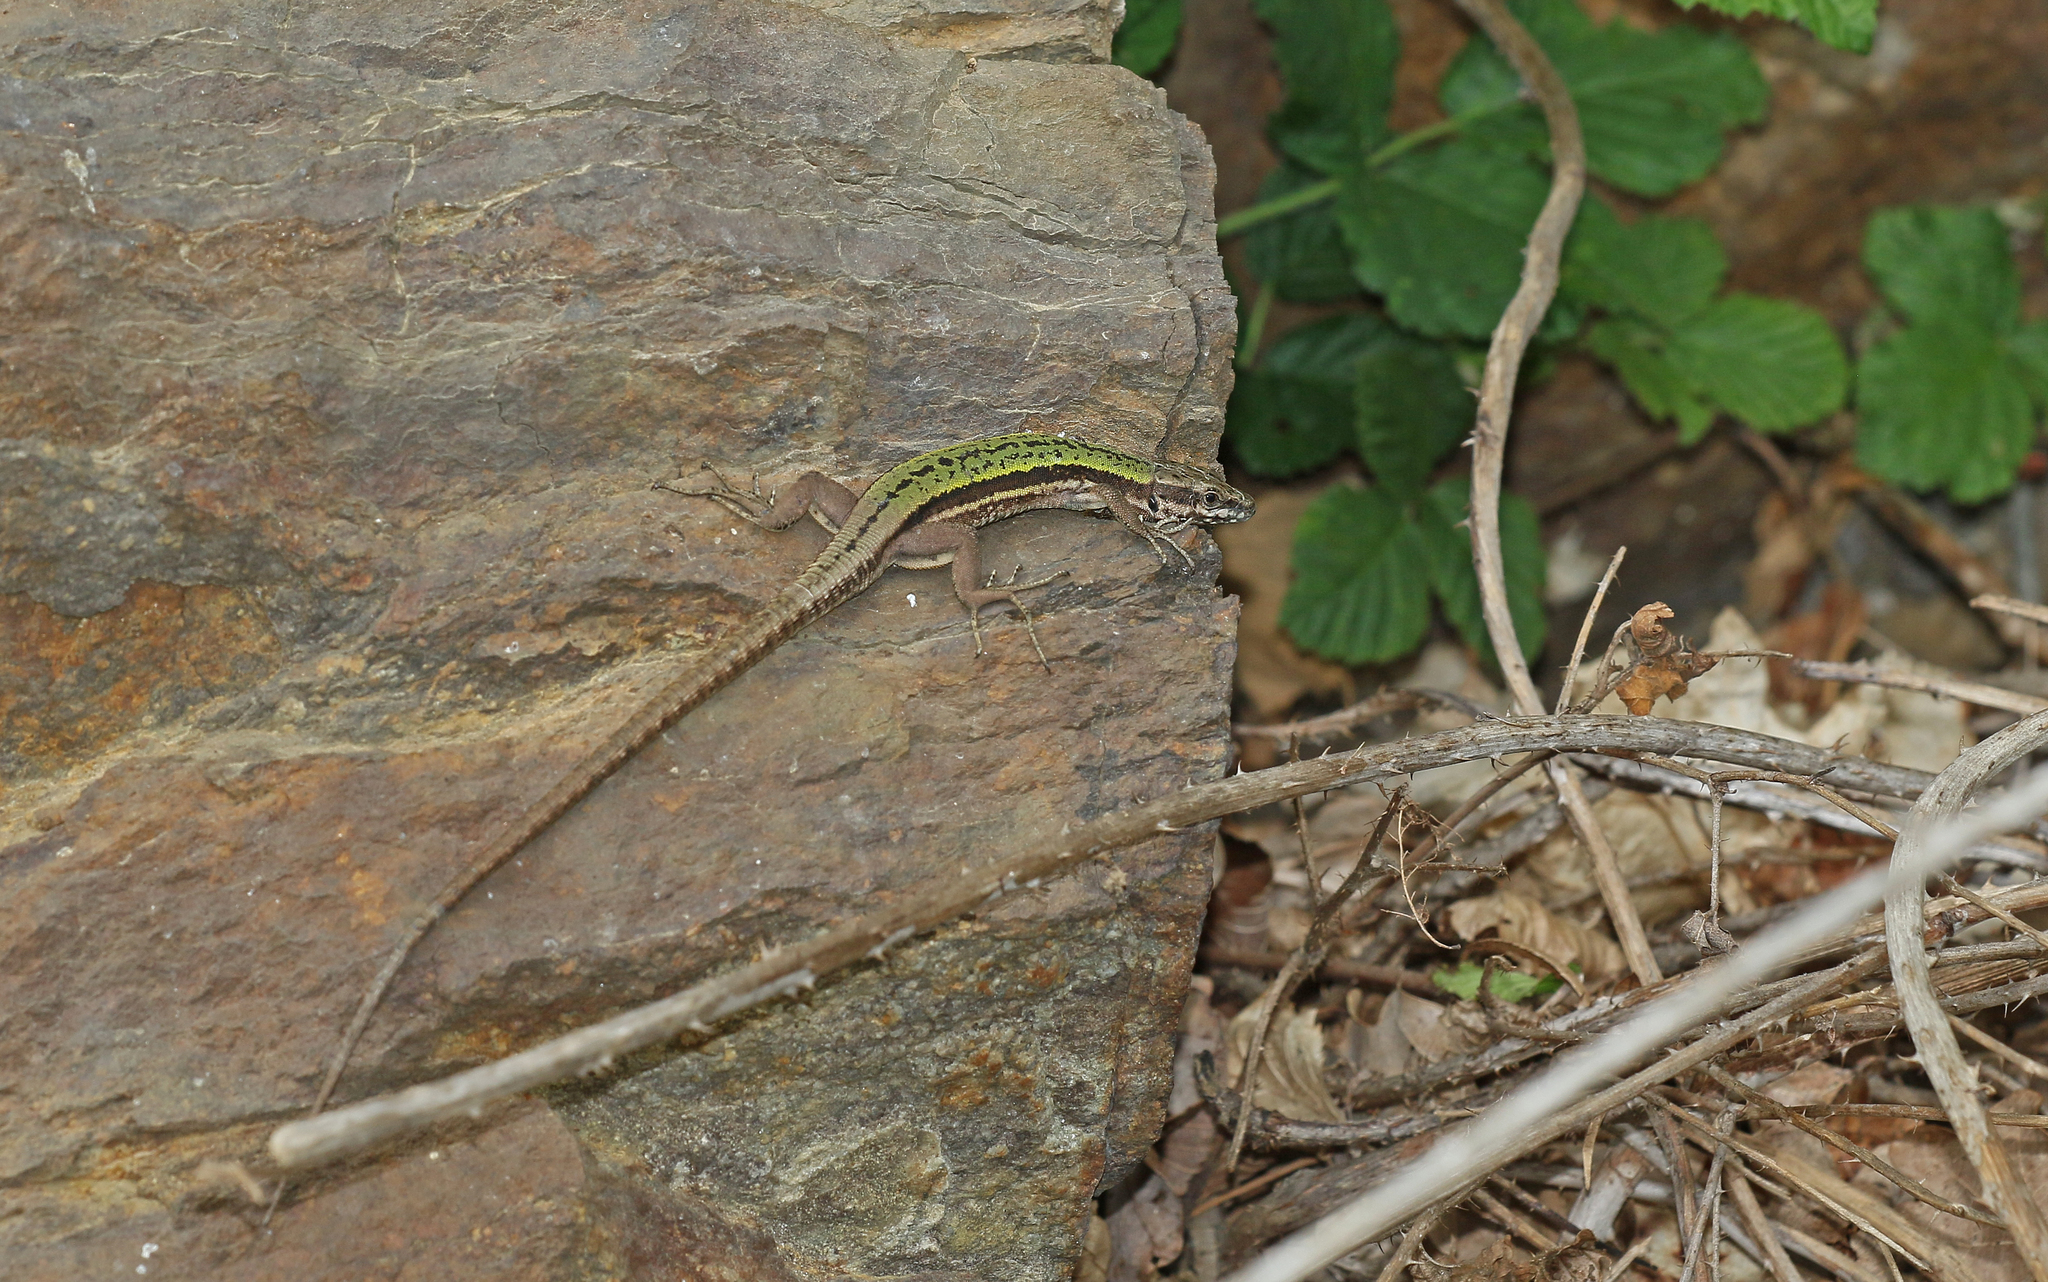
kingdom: Animalia
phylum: Chordata
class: Squamata
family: Lacertidae
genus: Podarcis
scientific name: Podarcis muralis
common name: Common wall lizard
